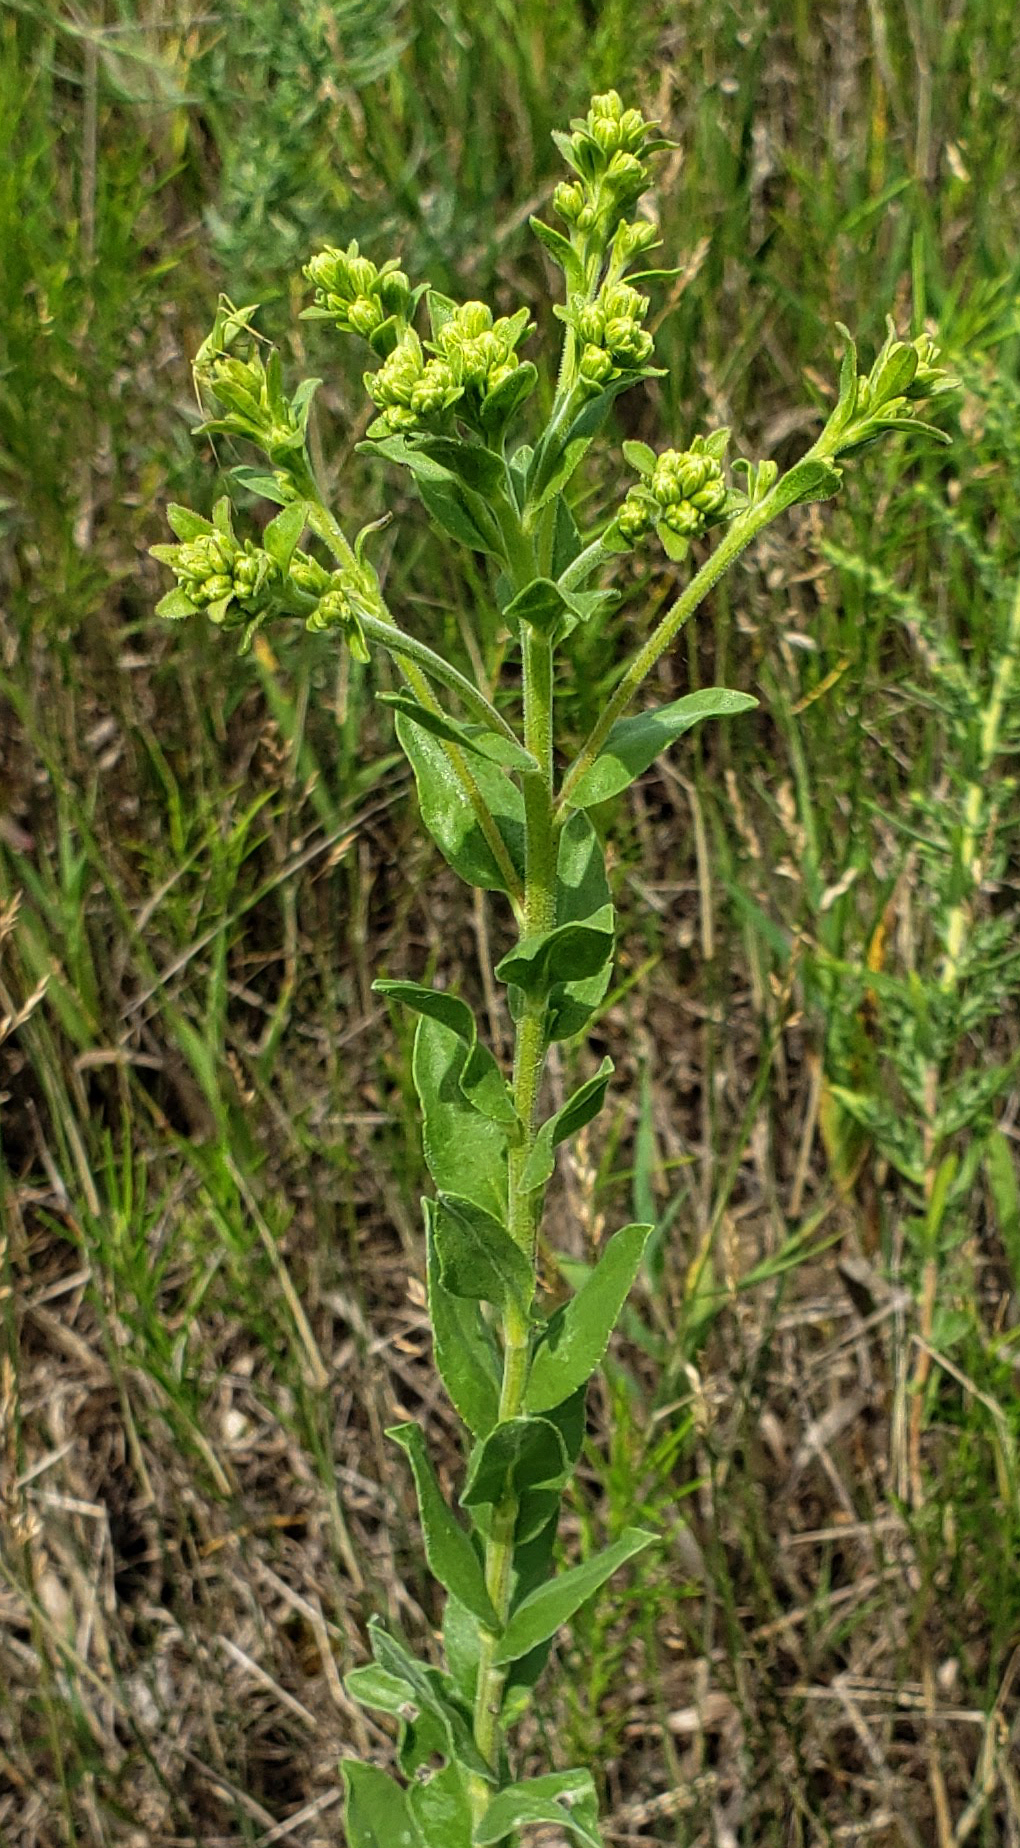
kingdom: Plantae
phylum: Tracheophyta
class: Magnoliopsida
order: Asterales
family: Asteraceae
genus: Solidago
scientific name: Solidago rigida
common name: Rigid goldenrod
